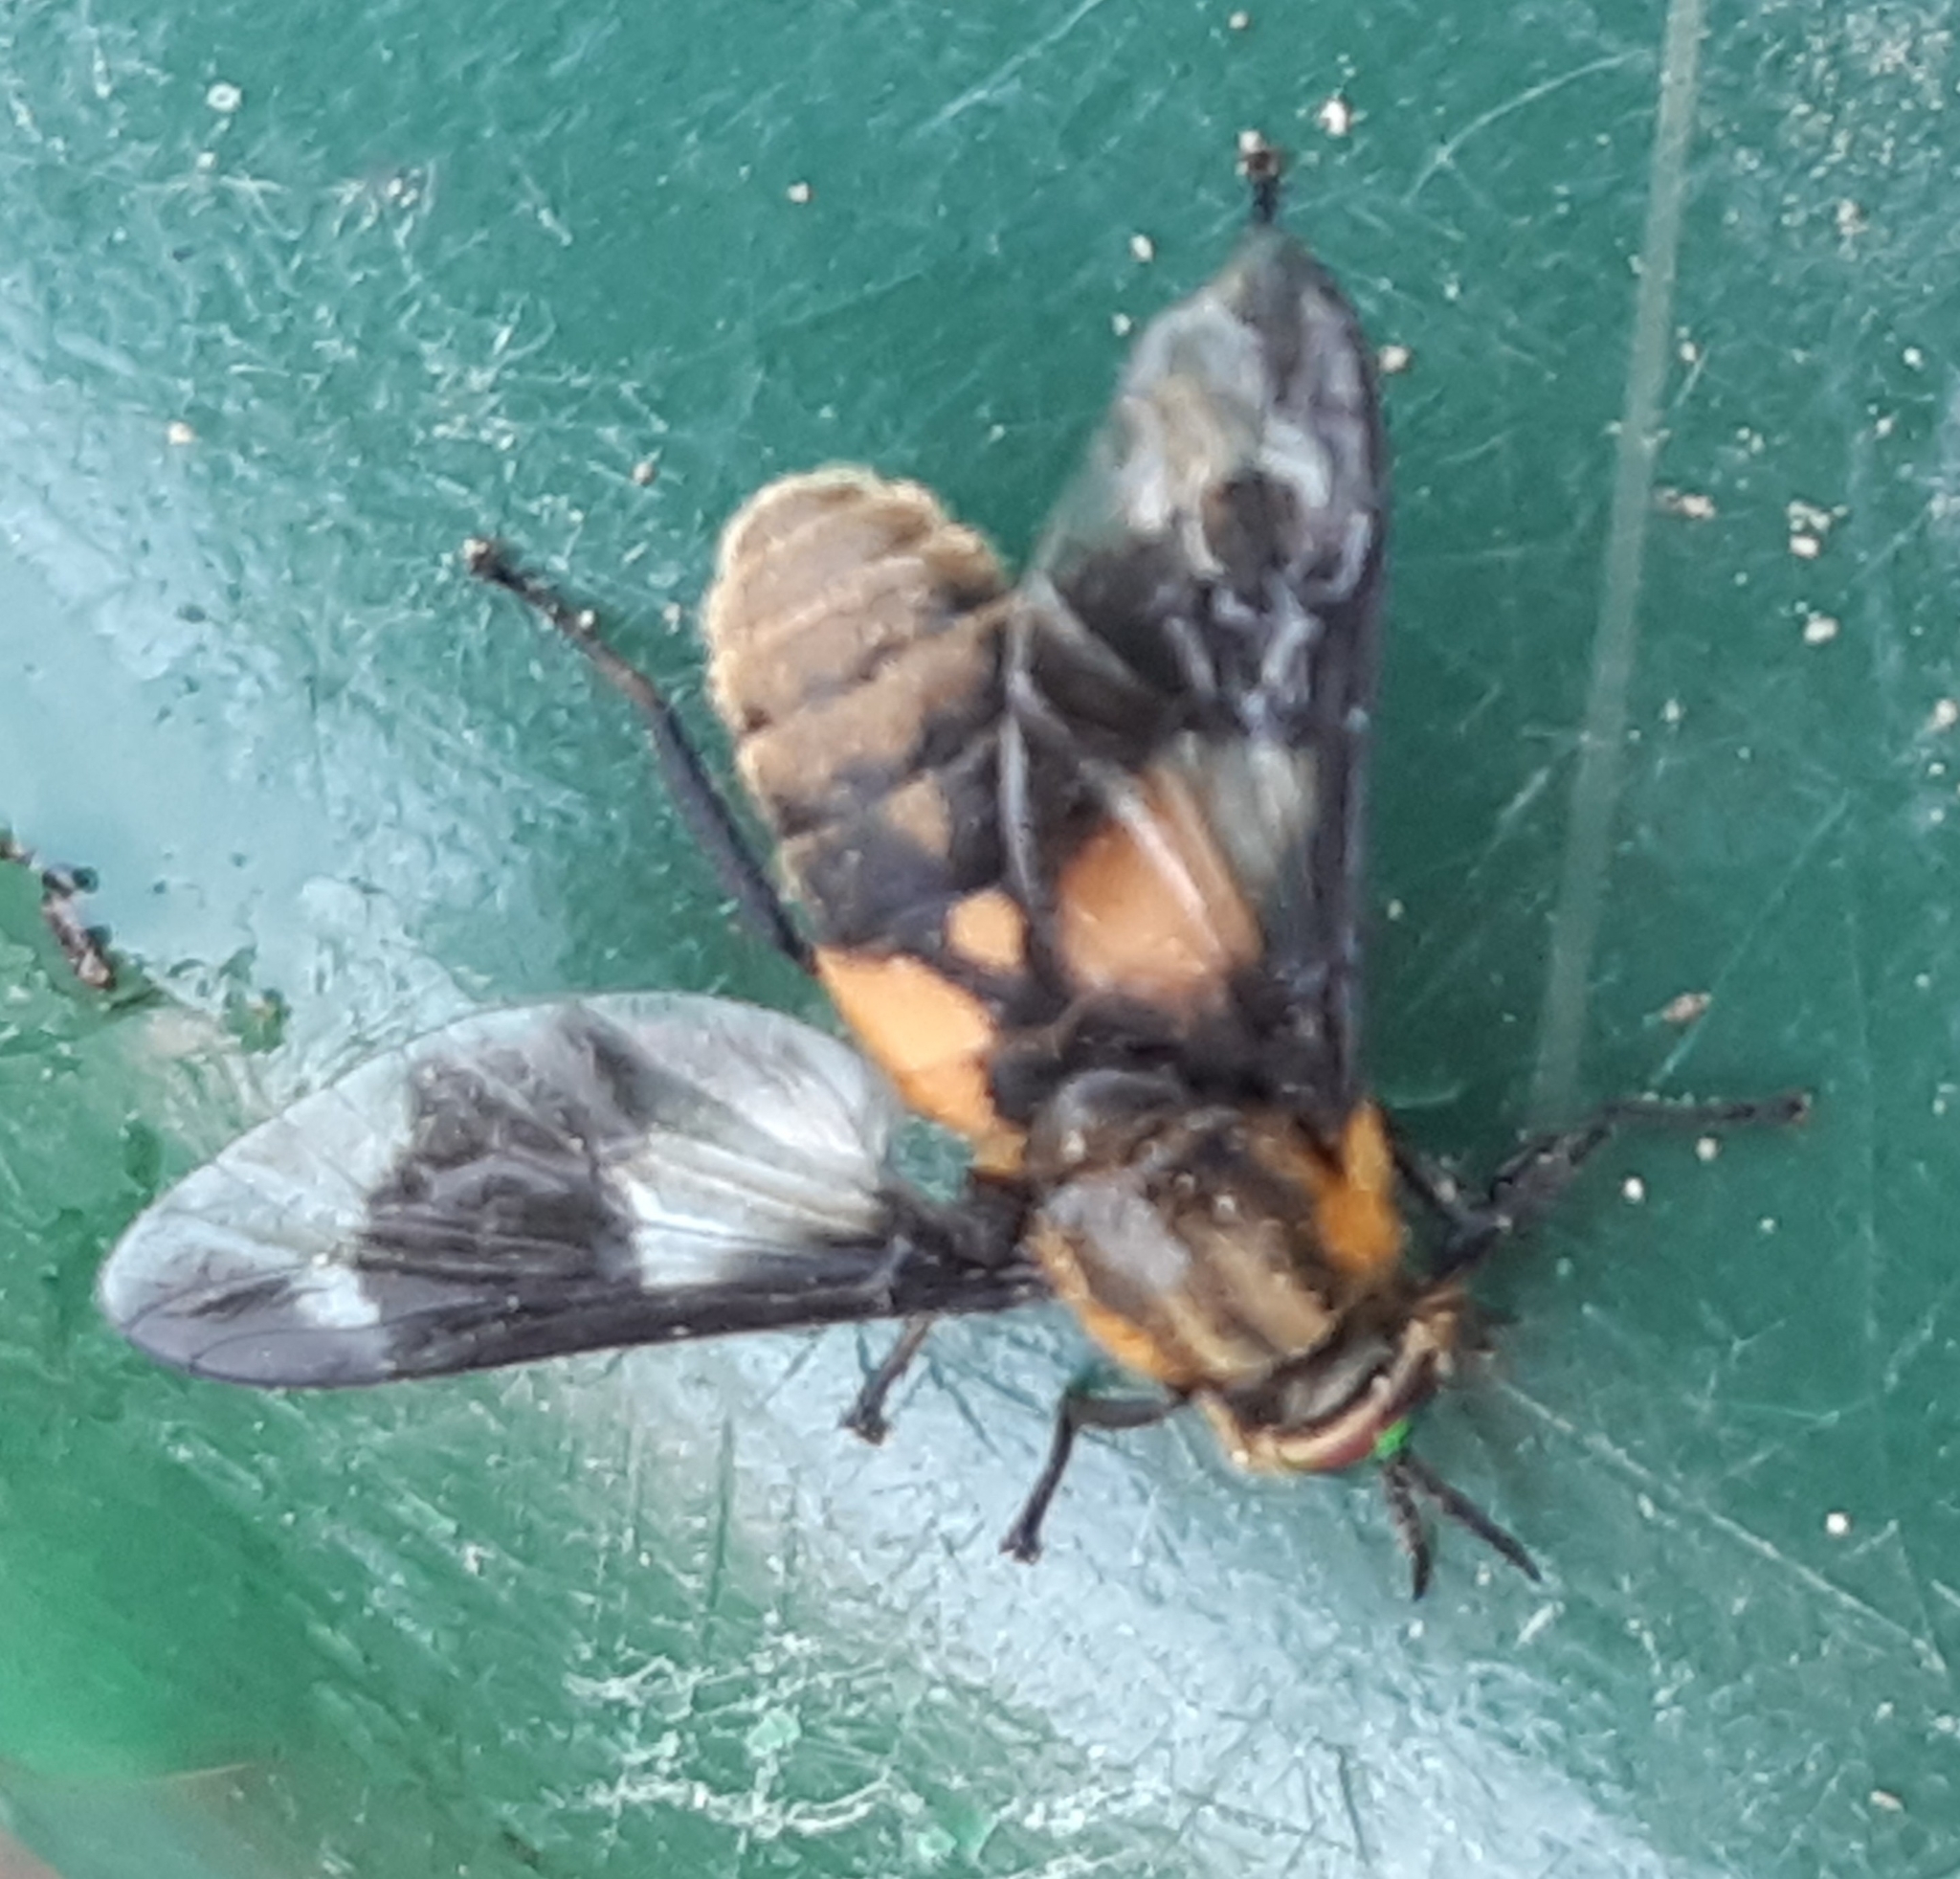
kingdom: Animalia
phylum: Arthropoda
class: Insecta
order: Diptera
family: Tabanidae
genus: Chrysops
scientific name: Chrysops caecutiens
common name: Splayed deerfly
